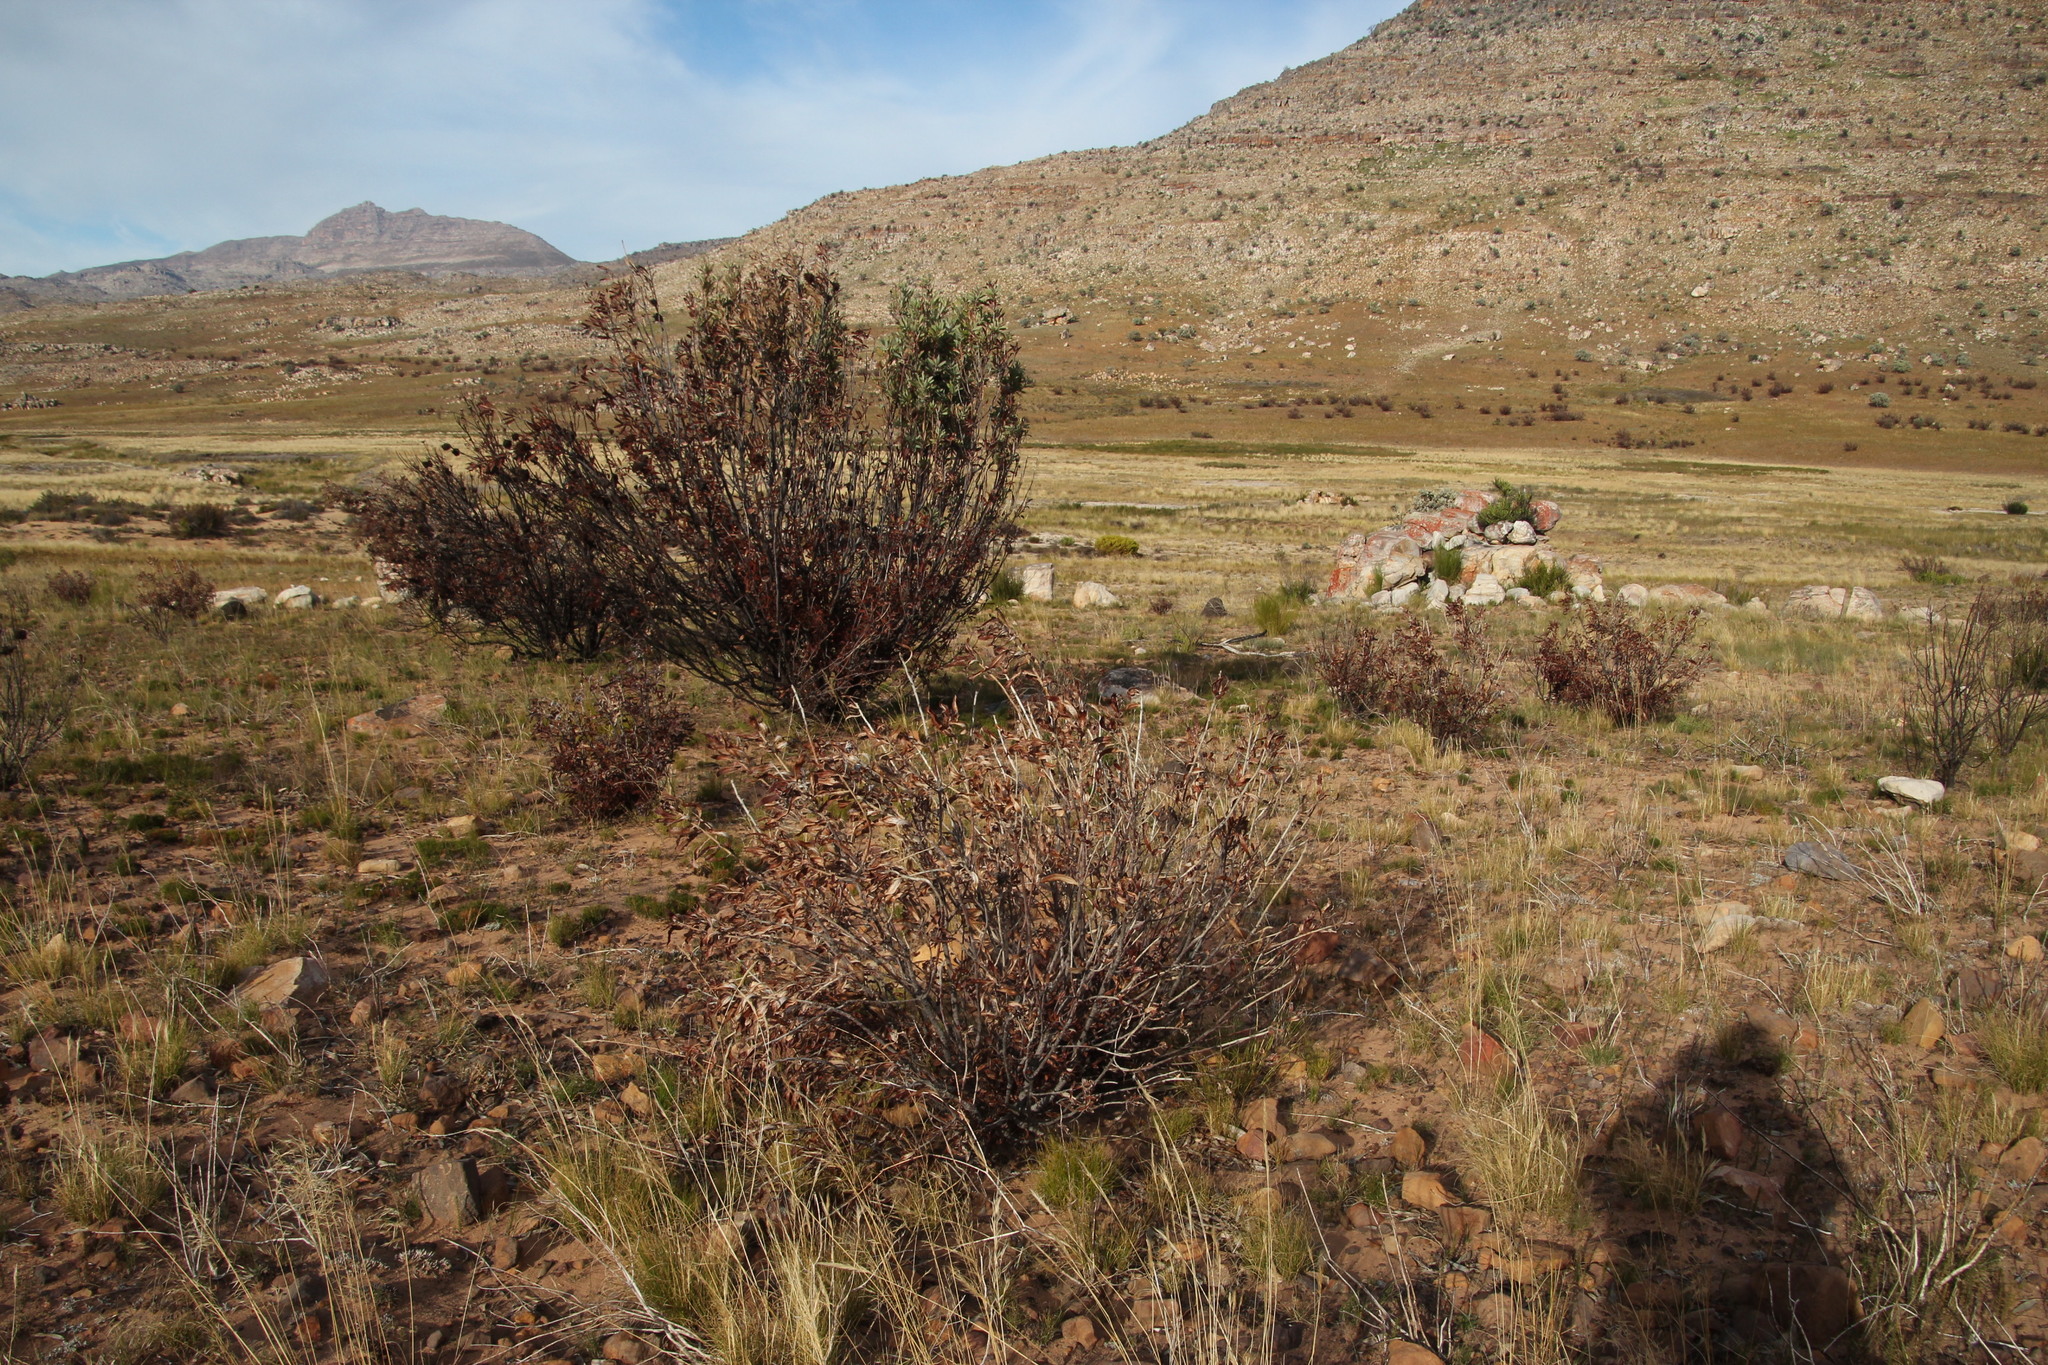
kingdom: Plantae
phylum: Tracheophyta
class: Magnoliopsida
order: Proteales
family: Proteaceae
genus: Leucadendron
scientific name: Leucadendron salignum
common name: Common sunshine conebush
